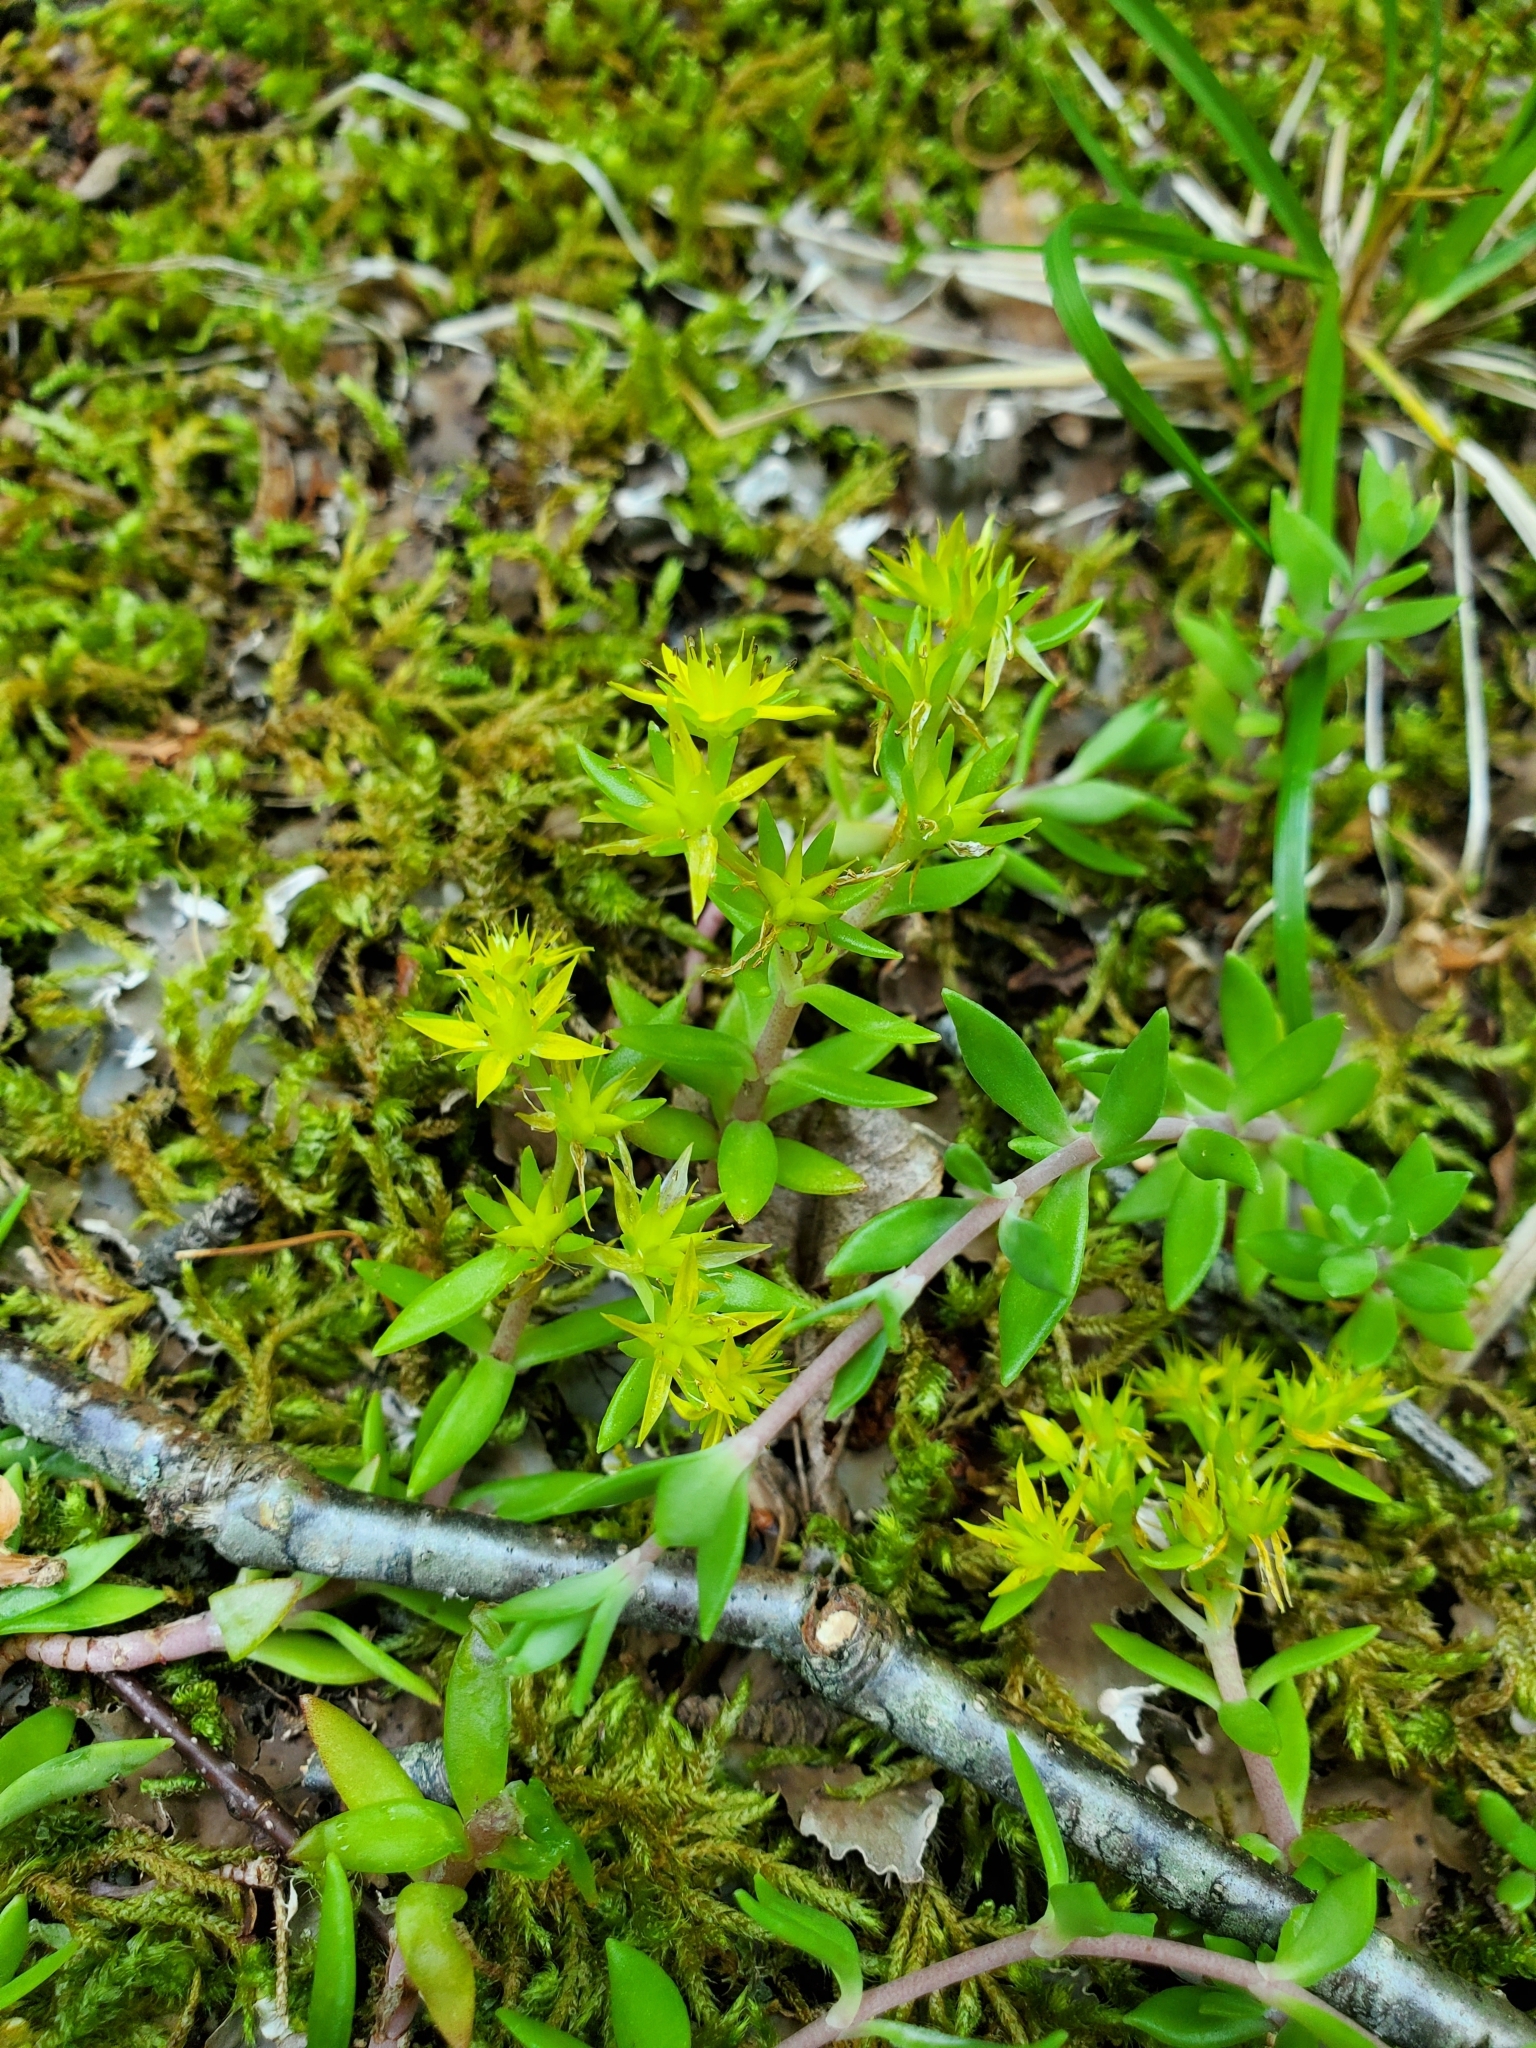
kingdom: Plantae
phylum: Tracheophyta
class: Magnoliopsida
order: Saxifragales
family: Crassulaceae
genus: Sedum
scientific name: Sedum sarmentosum
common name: Stringy stonecrop
